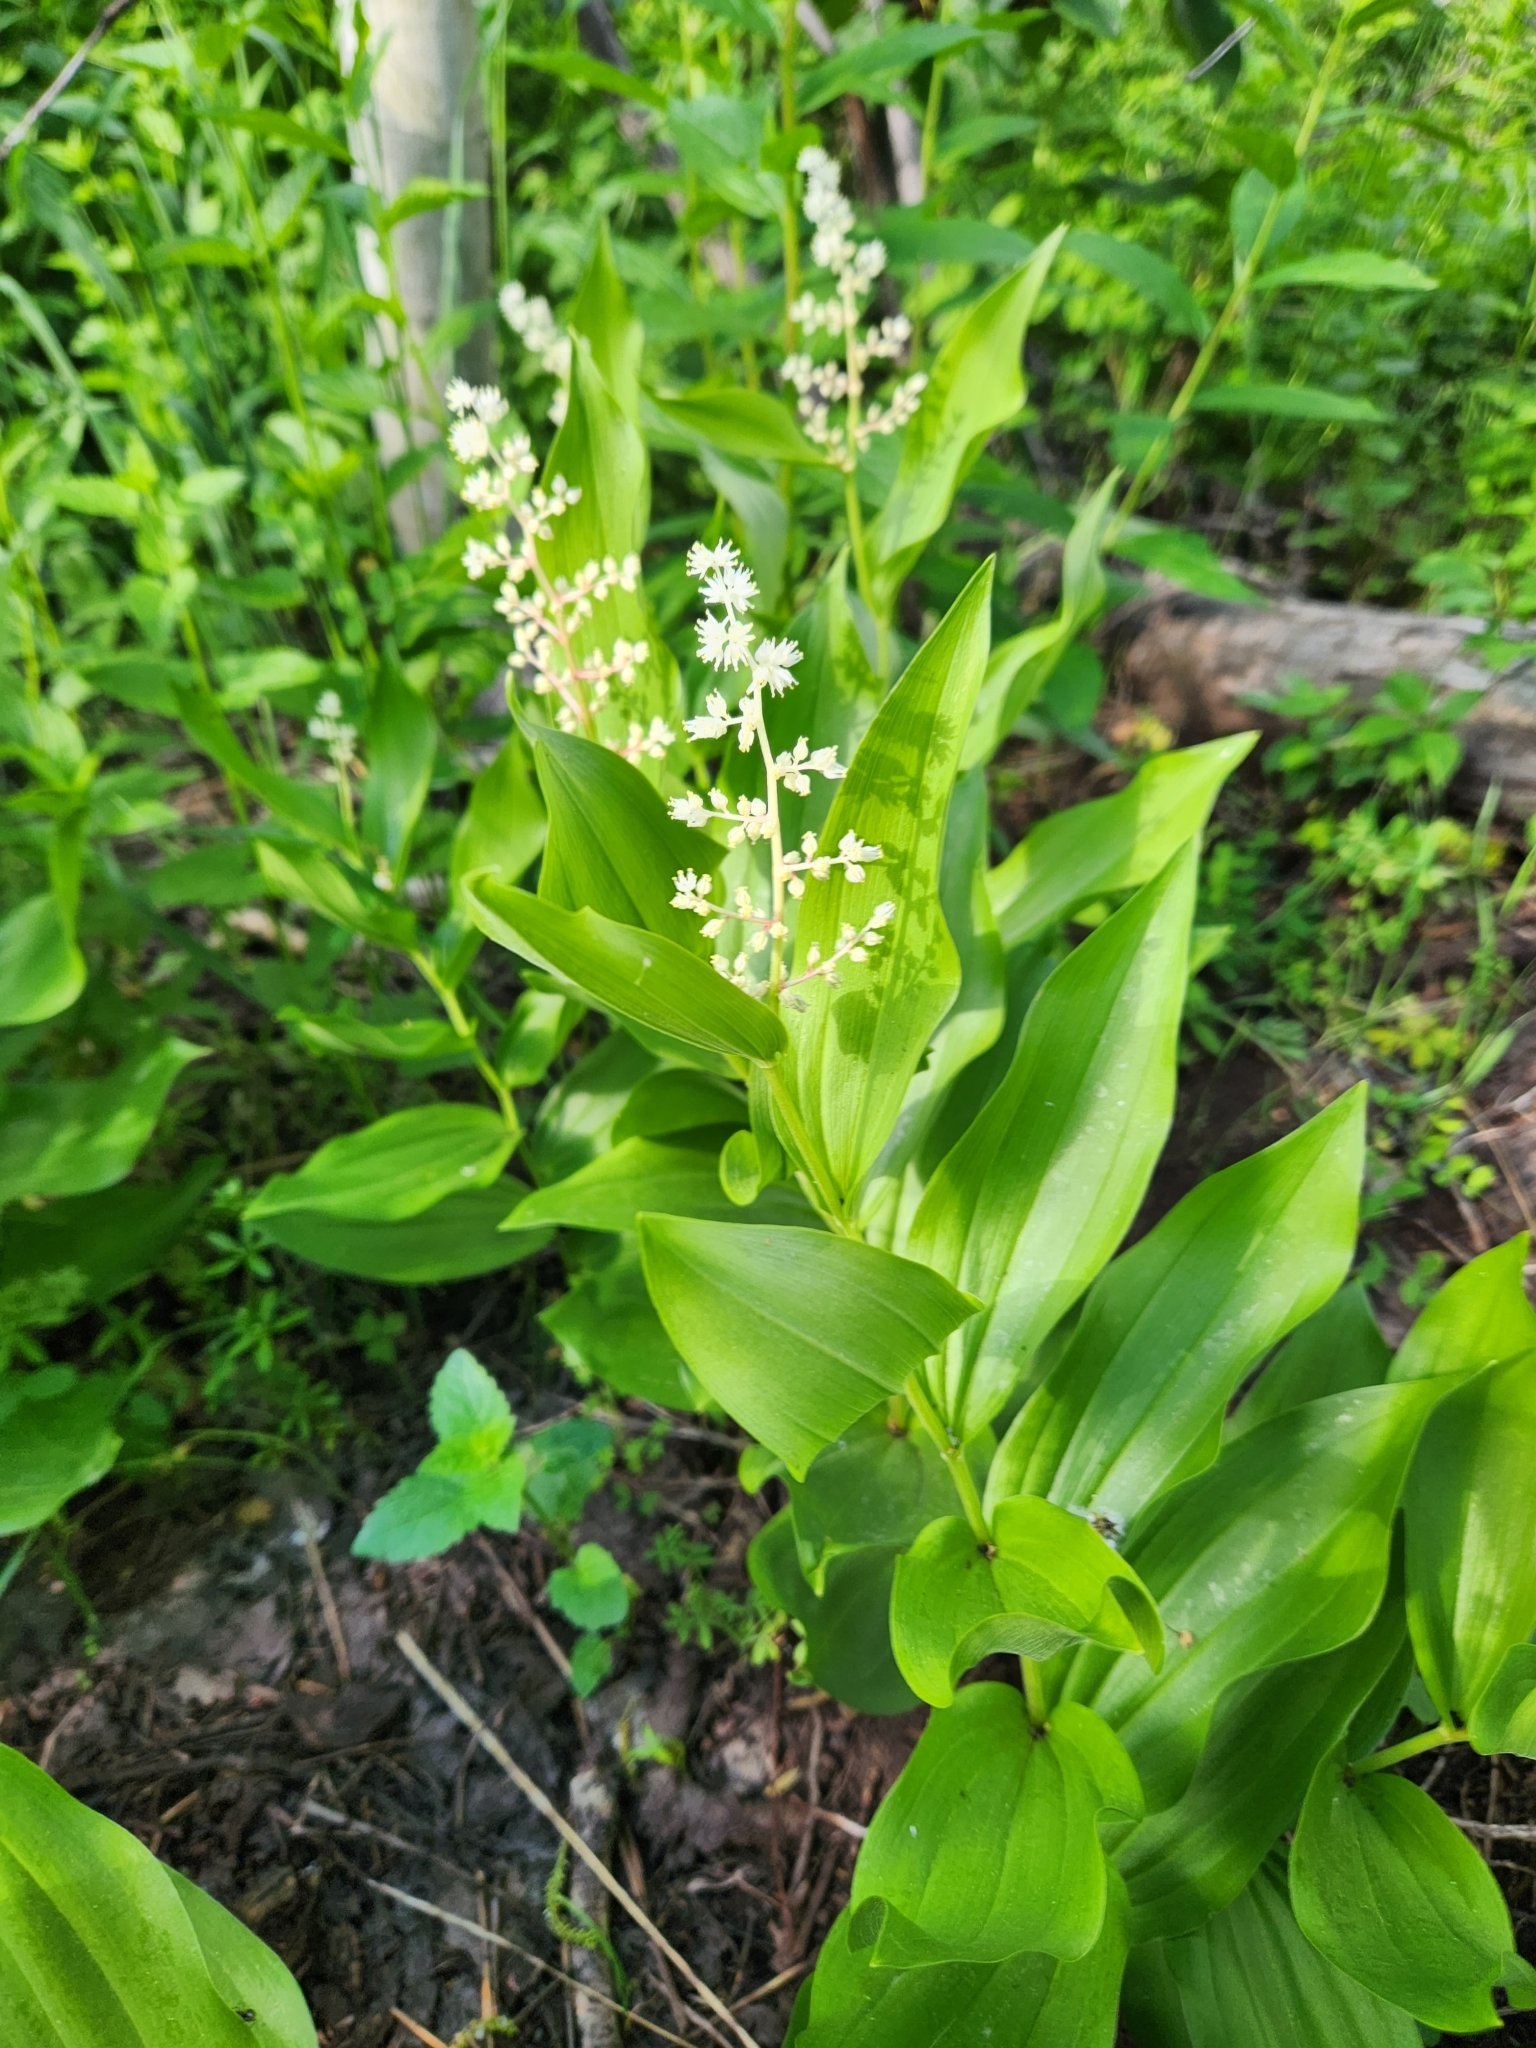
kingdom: Plantae
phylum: Tracheophyta
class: Liliopsida
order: Asparagales
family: Asparagaceae
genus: Maianthemum
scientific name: Maianthemum racemosum
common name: False spikenard
